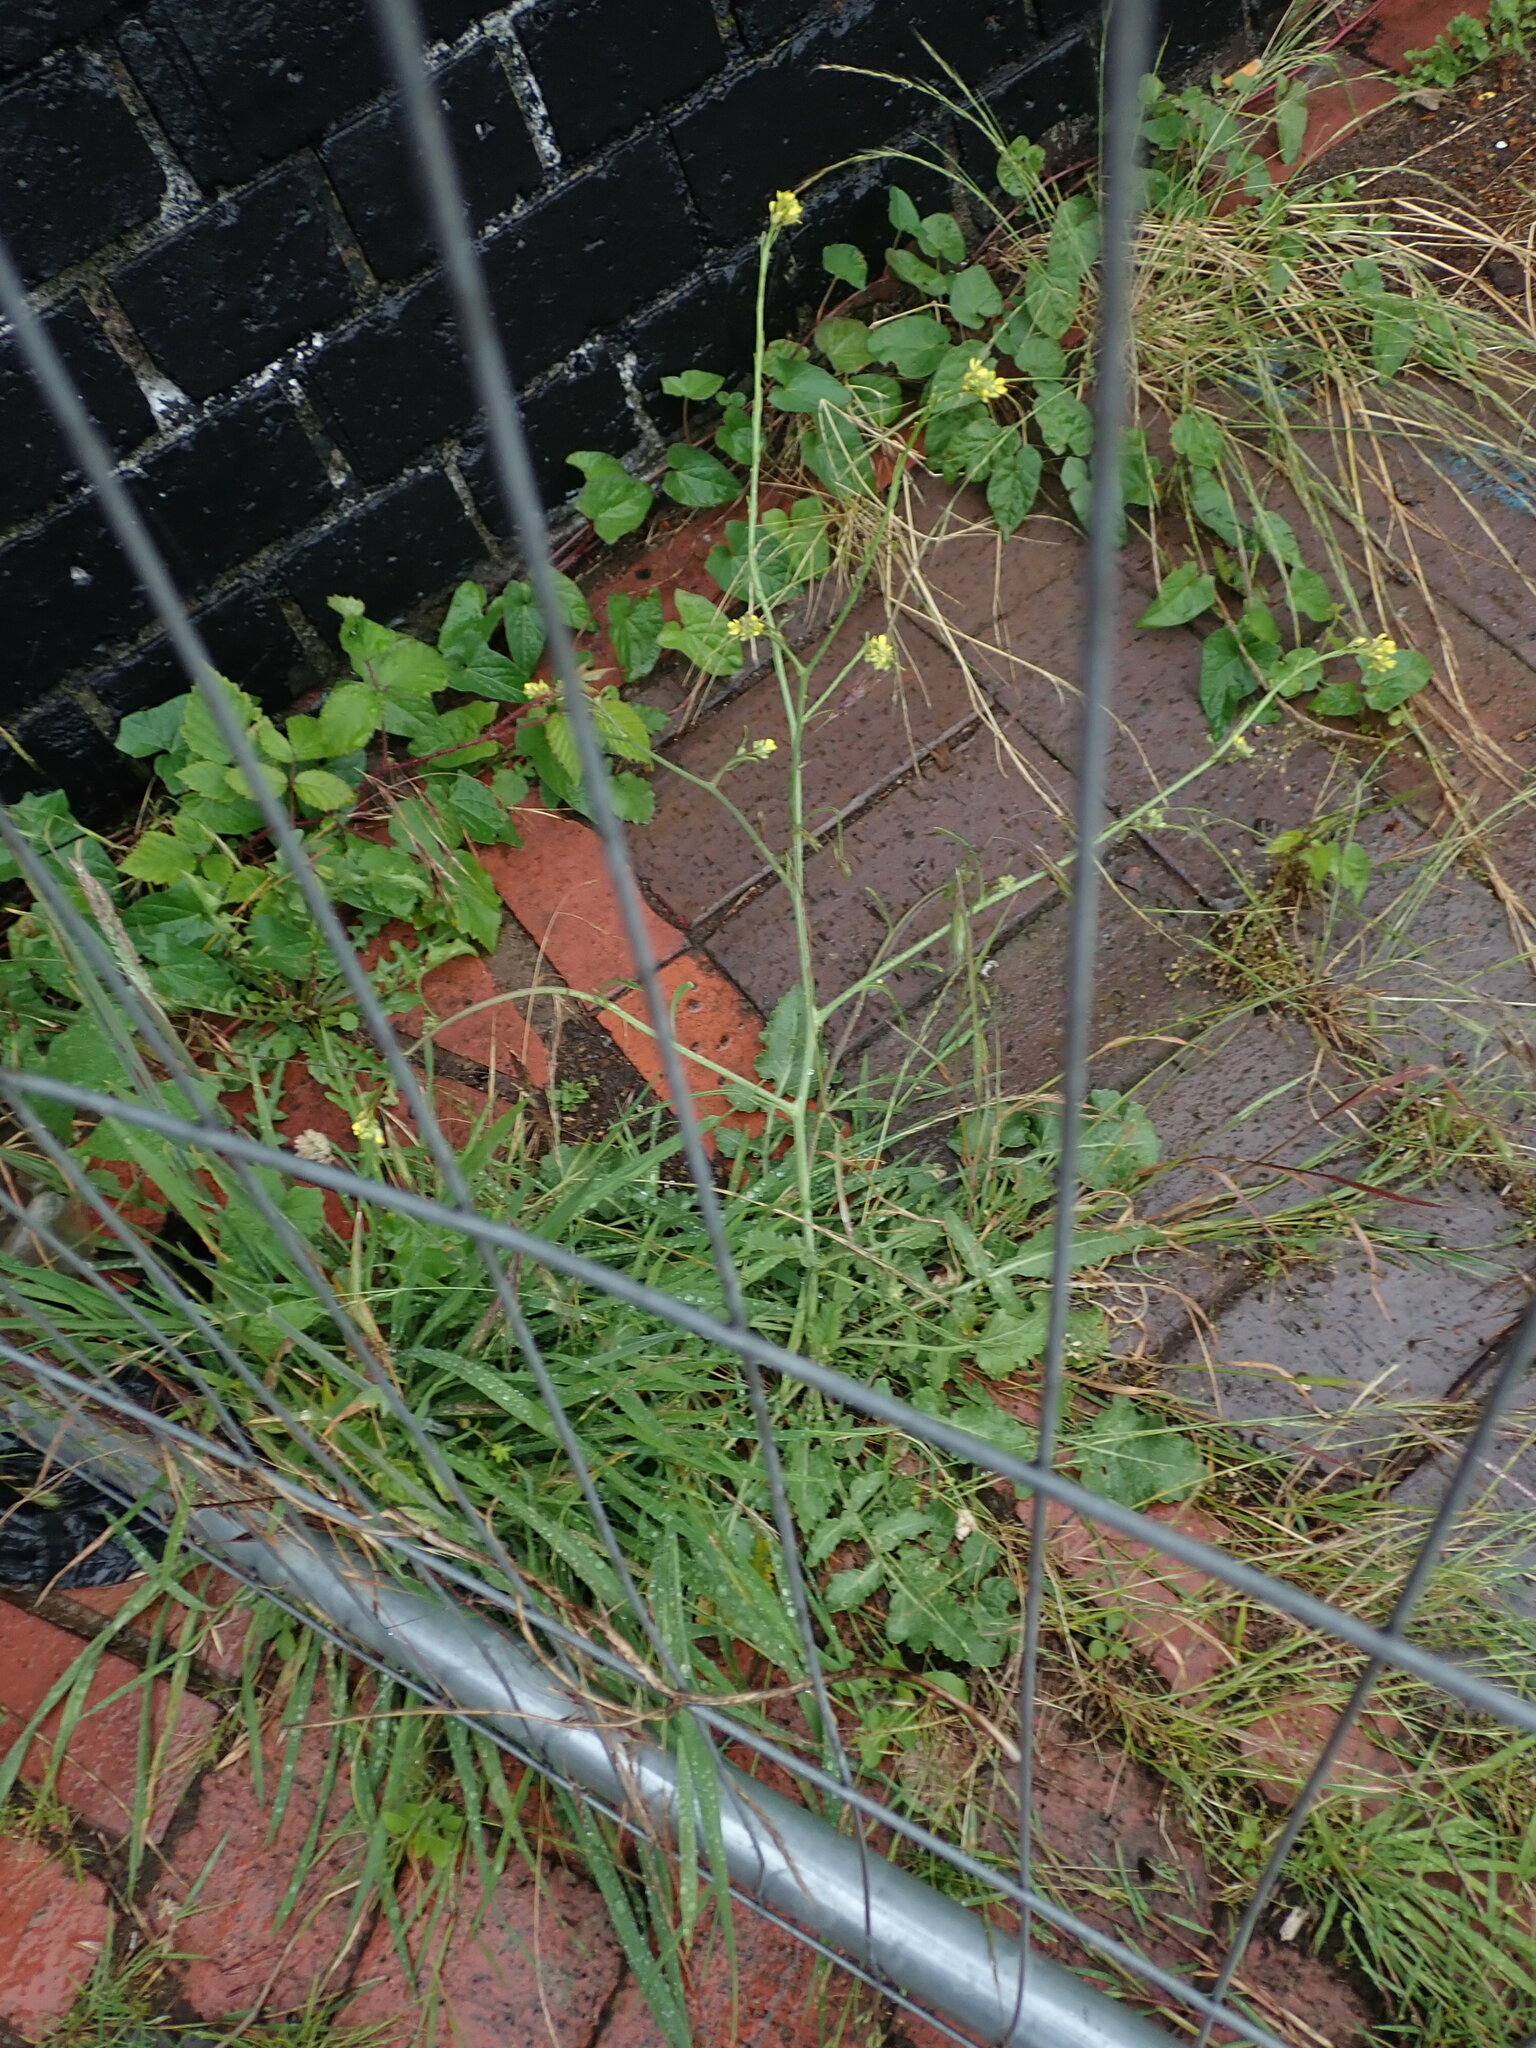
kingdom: Plantae
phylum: Tracheophyta
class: Magnoliopsida
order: Brassicales
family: Brassicaceae
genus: Hirschfeldia
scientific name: Hirschfeldia incana
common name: Hoary mustard
